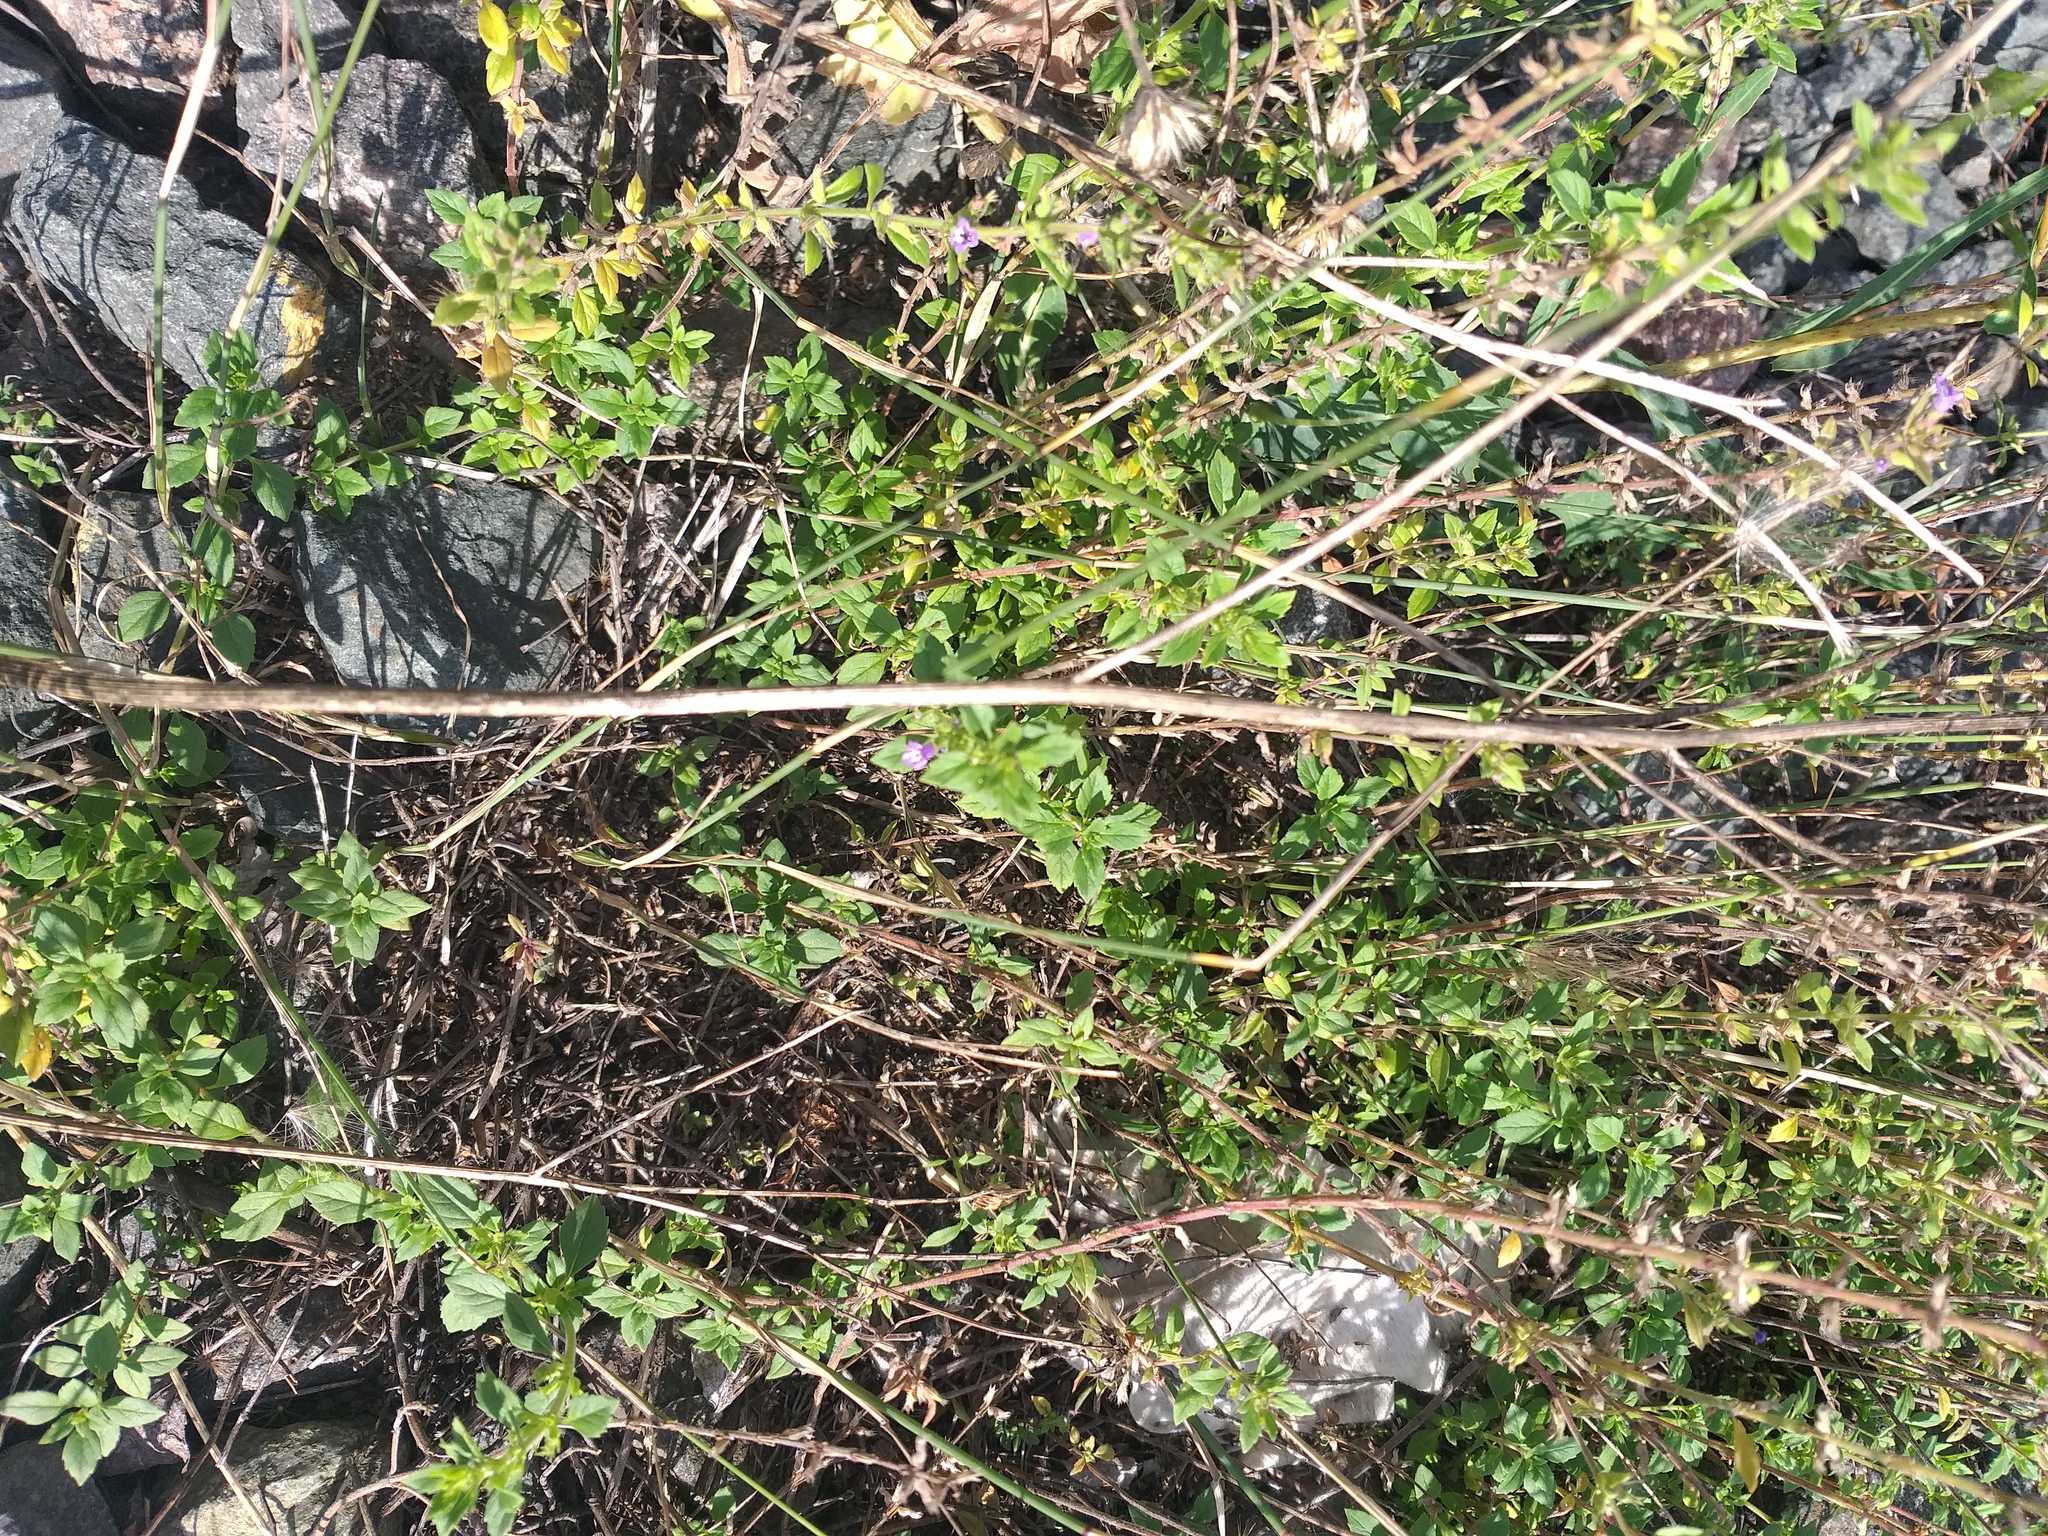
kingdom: Plantae
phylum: Tracheophyta
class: Magnoliopsida
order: Lamiales
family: Lamiaceae
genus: Clinopodium
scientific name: Clinopodium acinos
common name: Basil thyme
